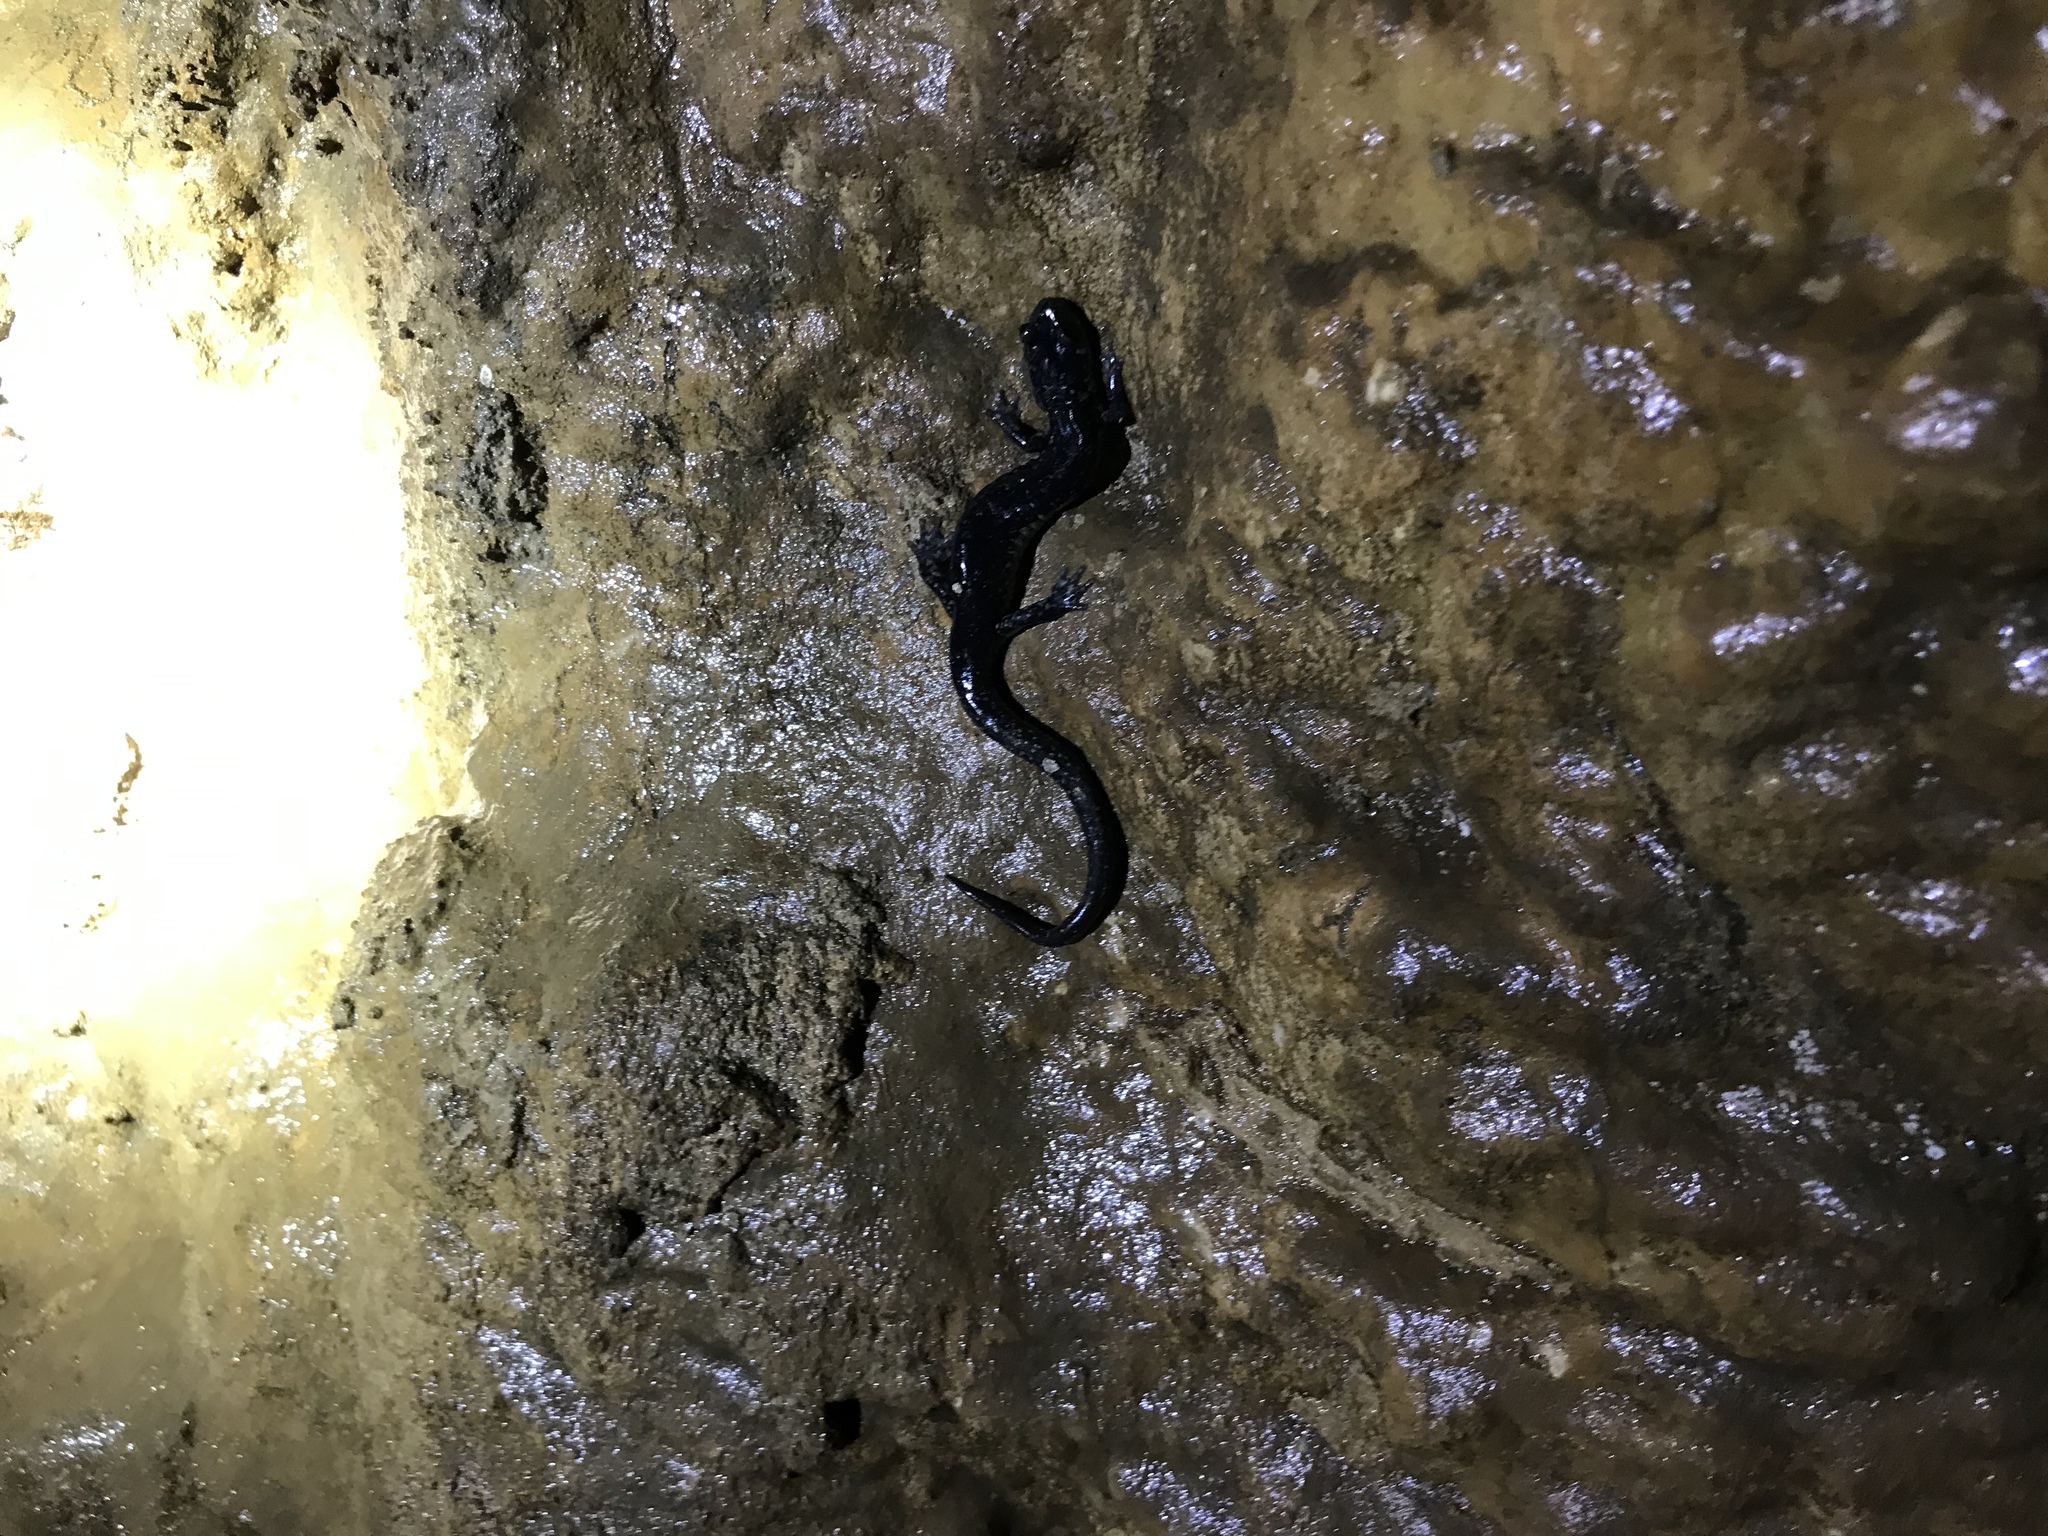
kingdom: Animalia
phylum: Chordata
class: Amphibia
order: Caudata
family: Plethodontidae
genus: Plethodon
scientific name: Plethodon glutinosus
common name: Northern slimy salamander
